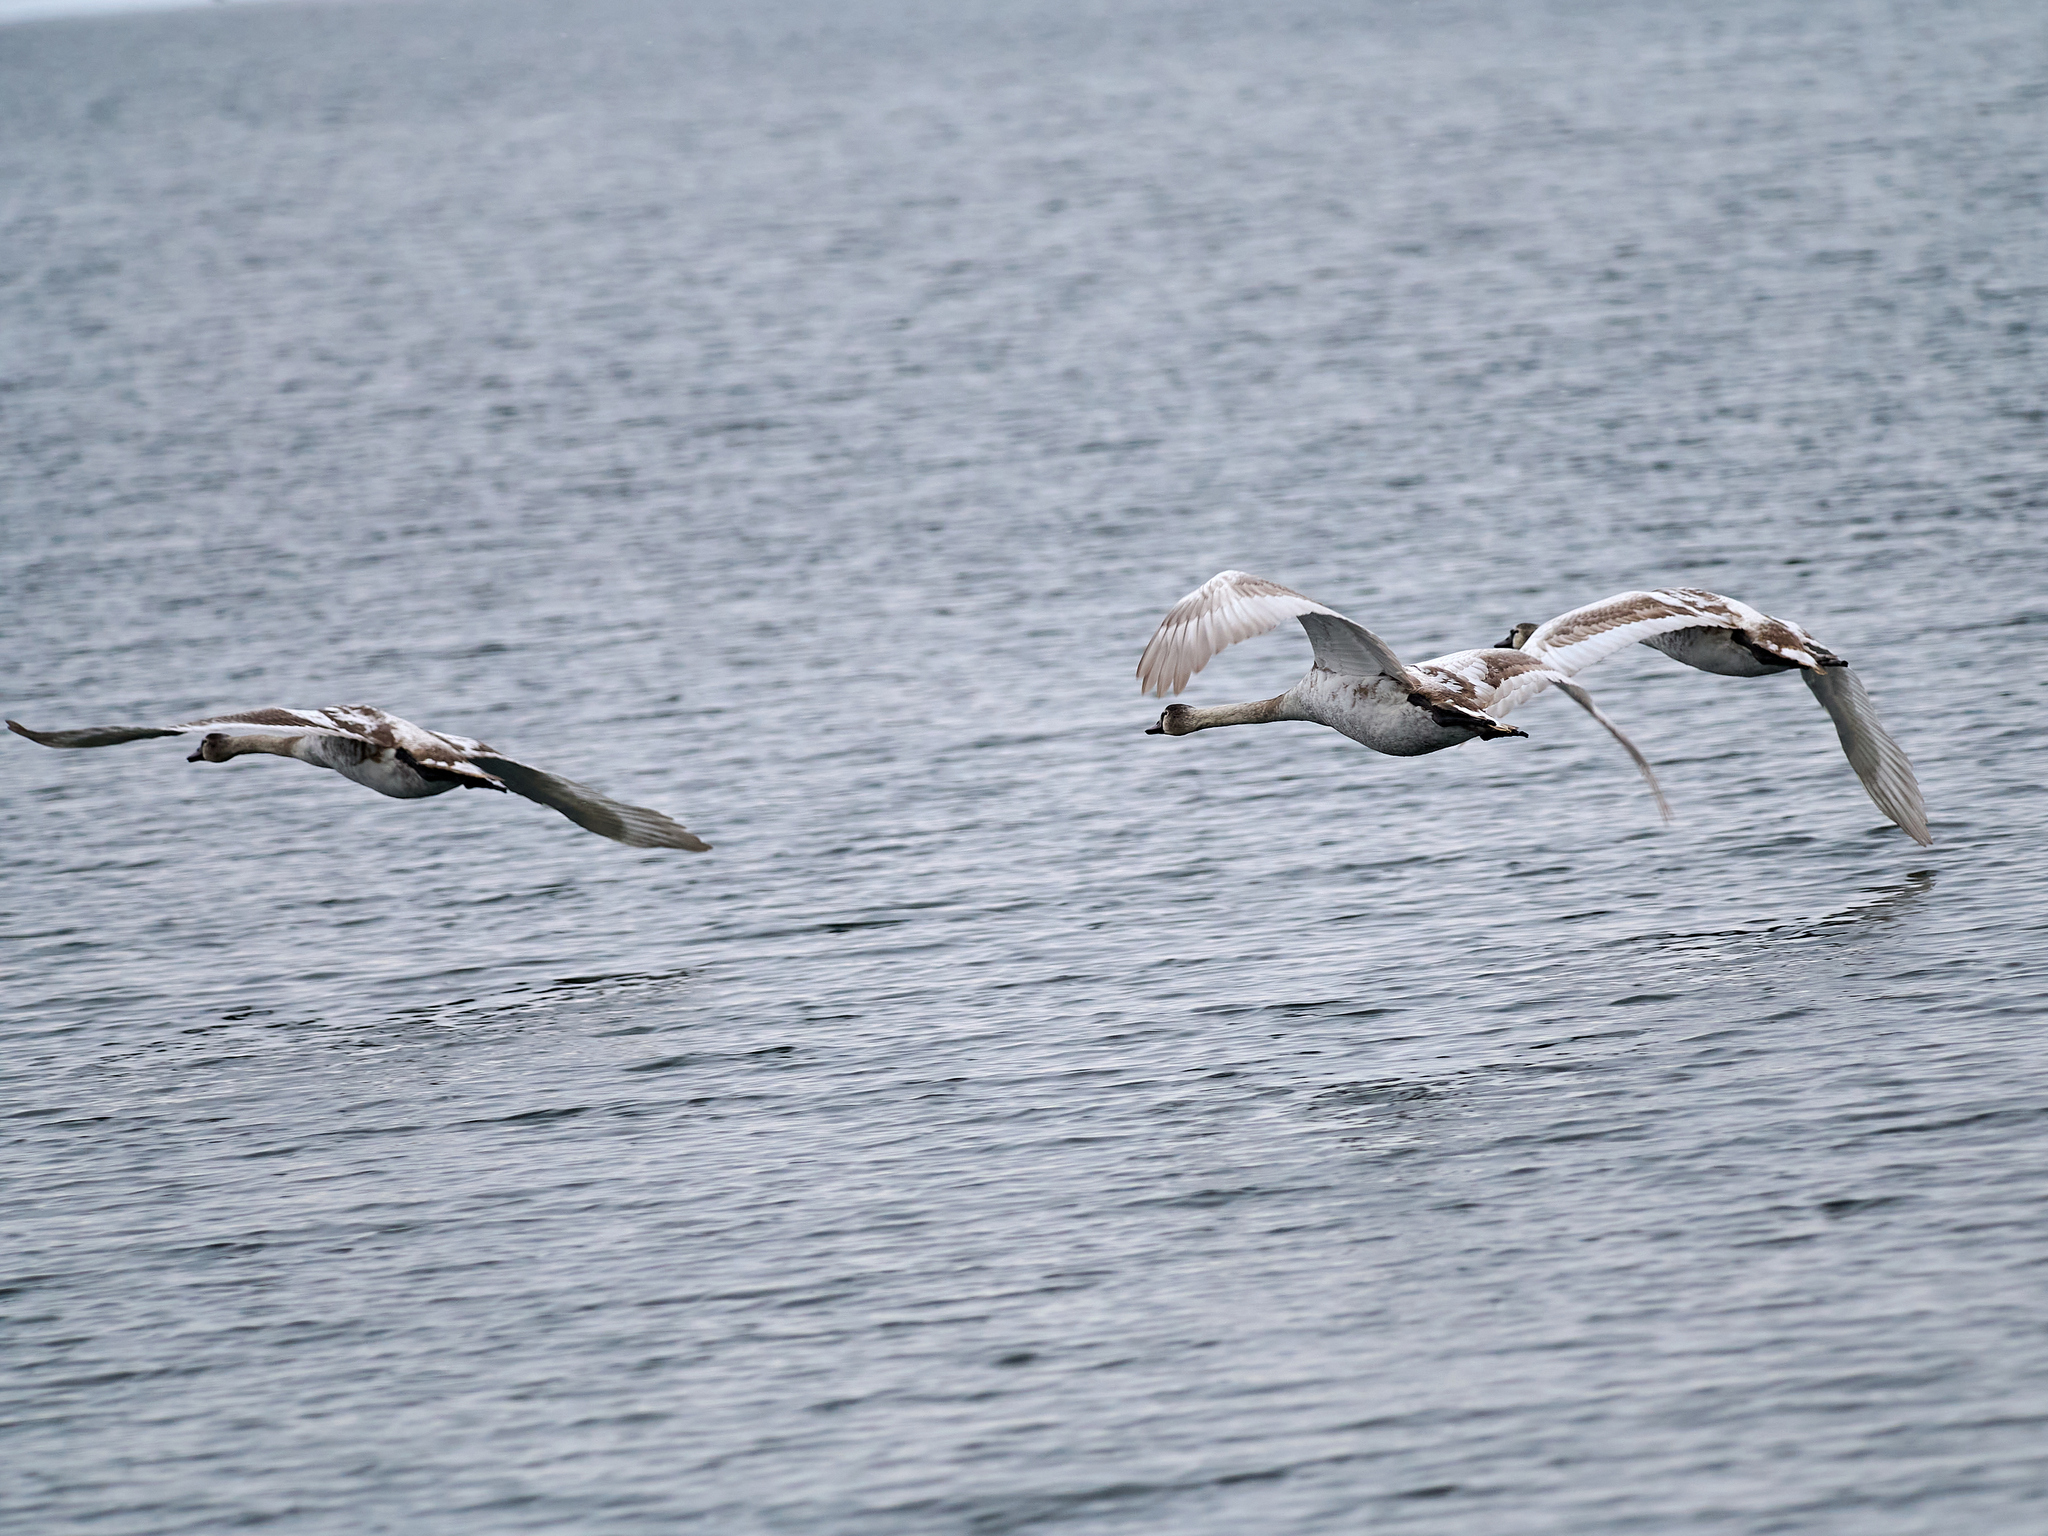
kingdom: Animalia
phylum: Chordata
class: Aves
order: Anseriformes
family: Anatidae
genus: Cygnus
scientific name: Cygnus olor
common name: Mute swan
